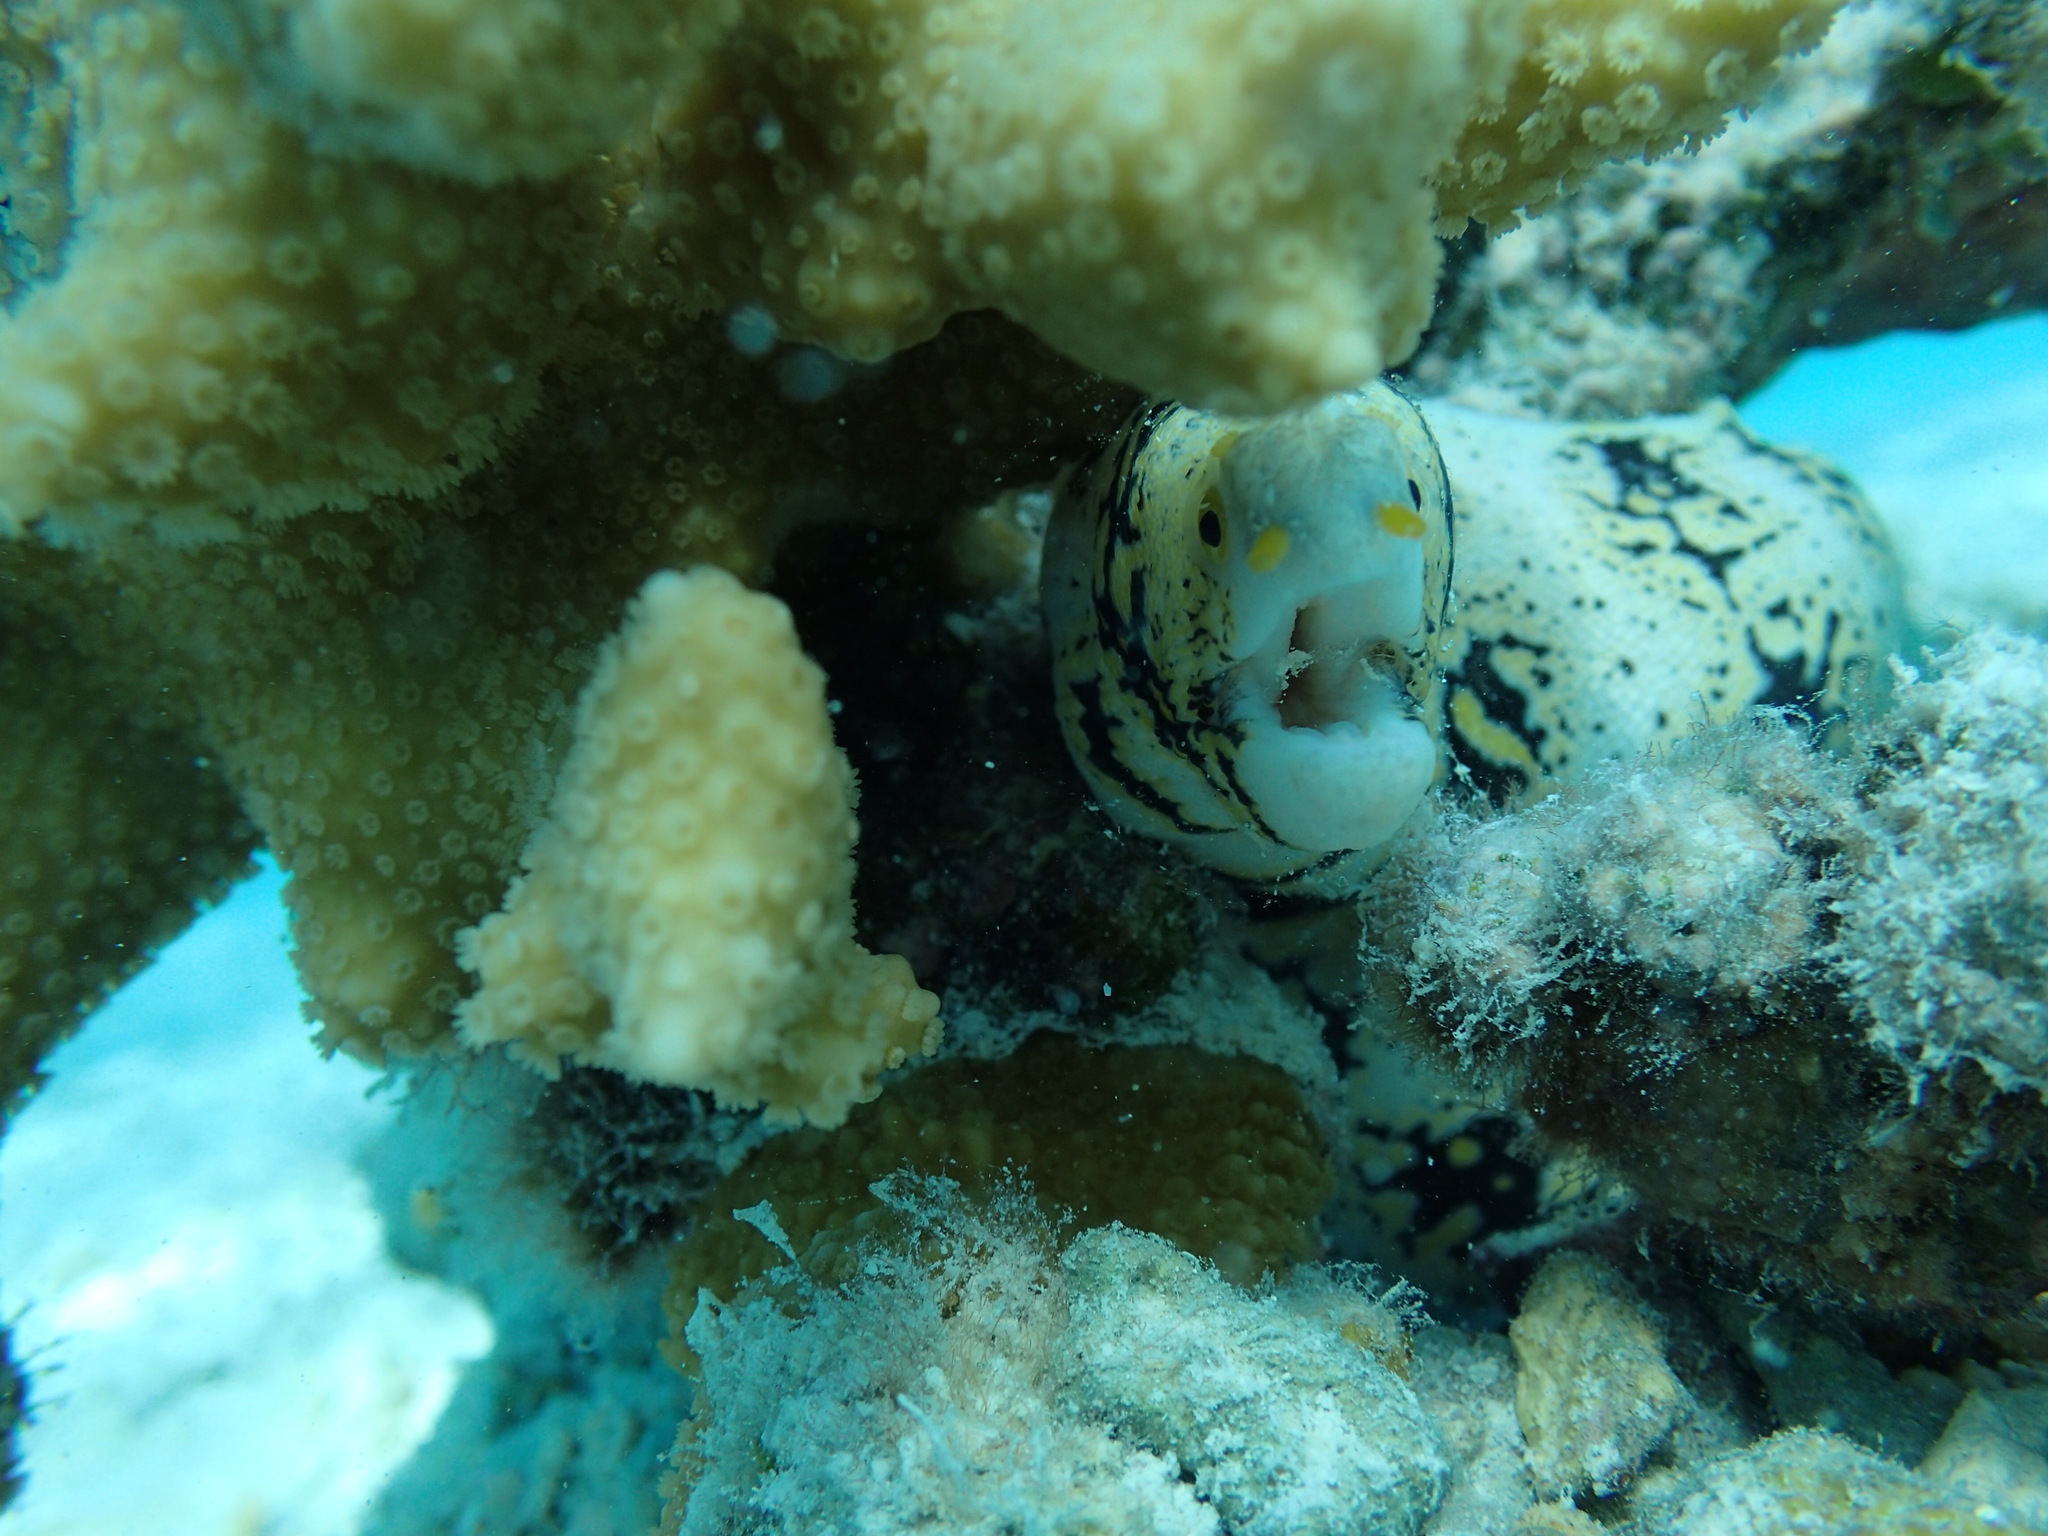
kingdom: Animalia
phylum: Chordata
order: Anguilliformes
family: Muraenidae
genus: Echidna
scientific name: Echidna nebulosa
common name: Snowflake moray
